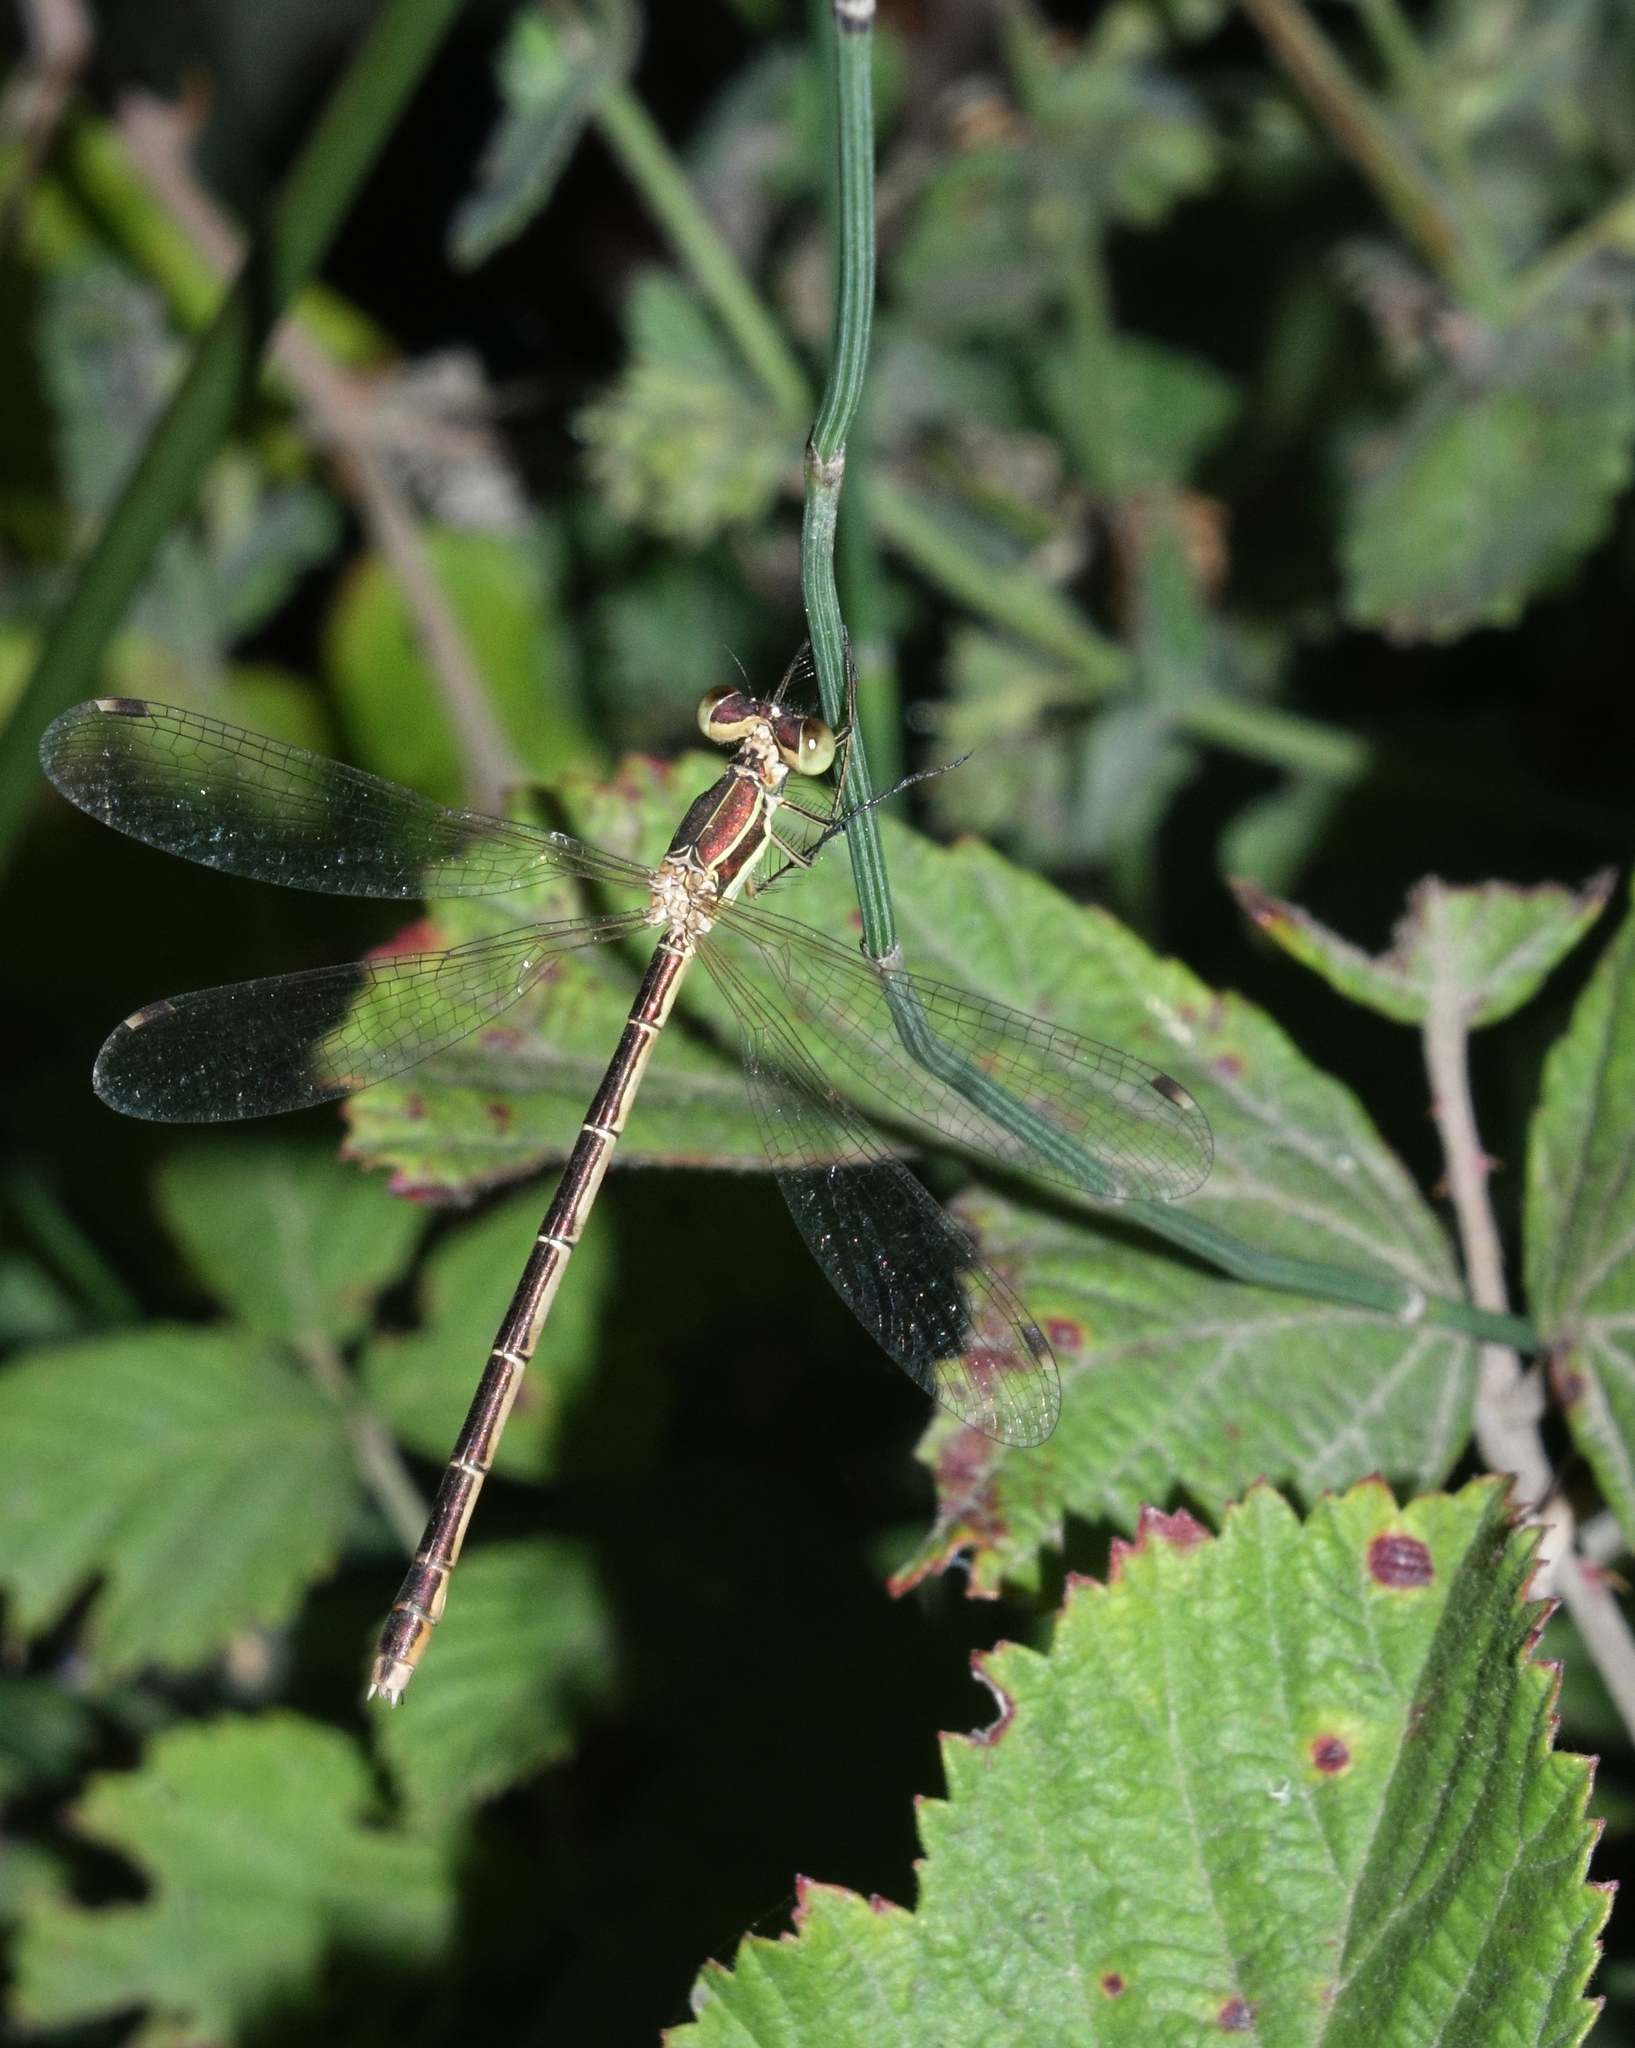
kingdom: Animalia
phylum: Arthropoda
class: Insecta
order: Odonata
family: Lestidae
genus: Lestes
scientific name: Lestes barbarus
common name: Migrant spreadwing
